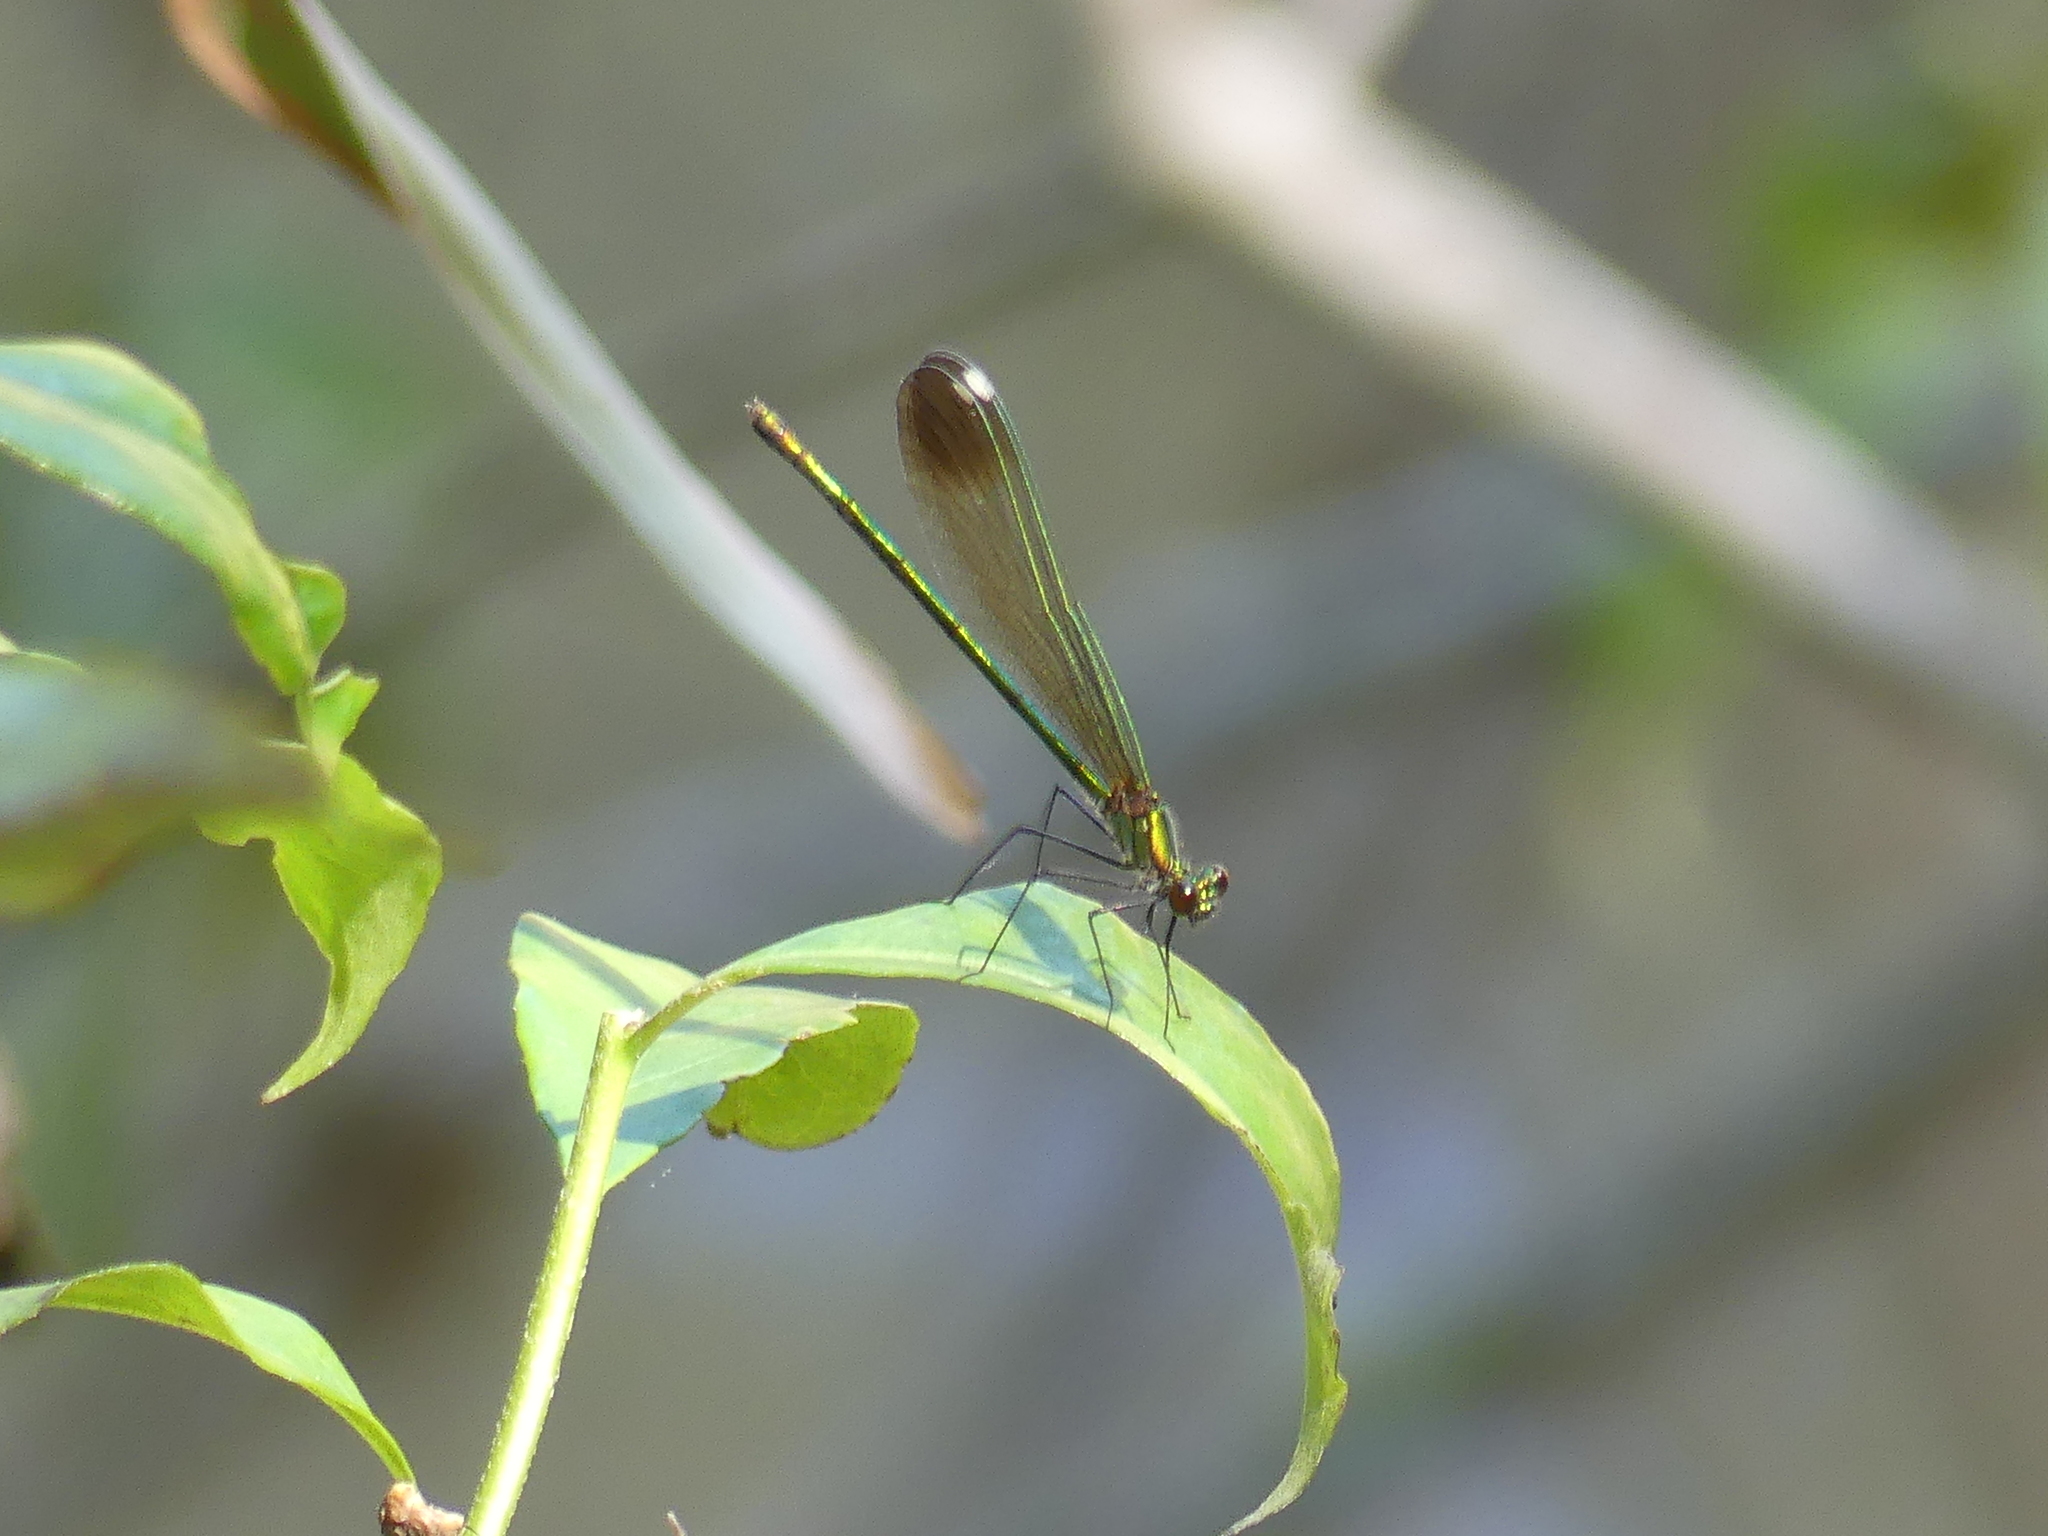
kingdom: Animalia
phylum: Arthropoda
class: Insecta
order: Odonata
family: Calopterygidae
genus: Calopteryx
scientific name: Calopteryx dimidiata
